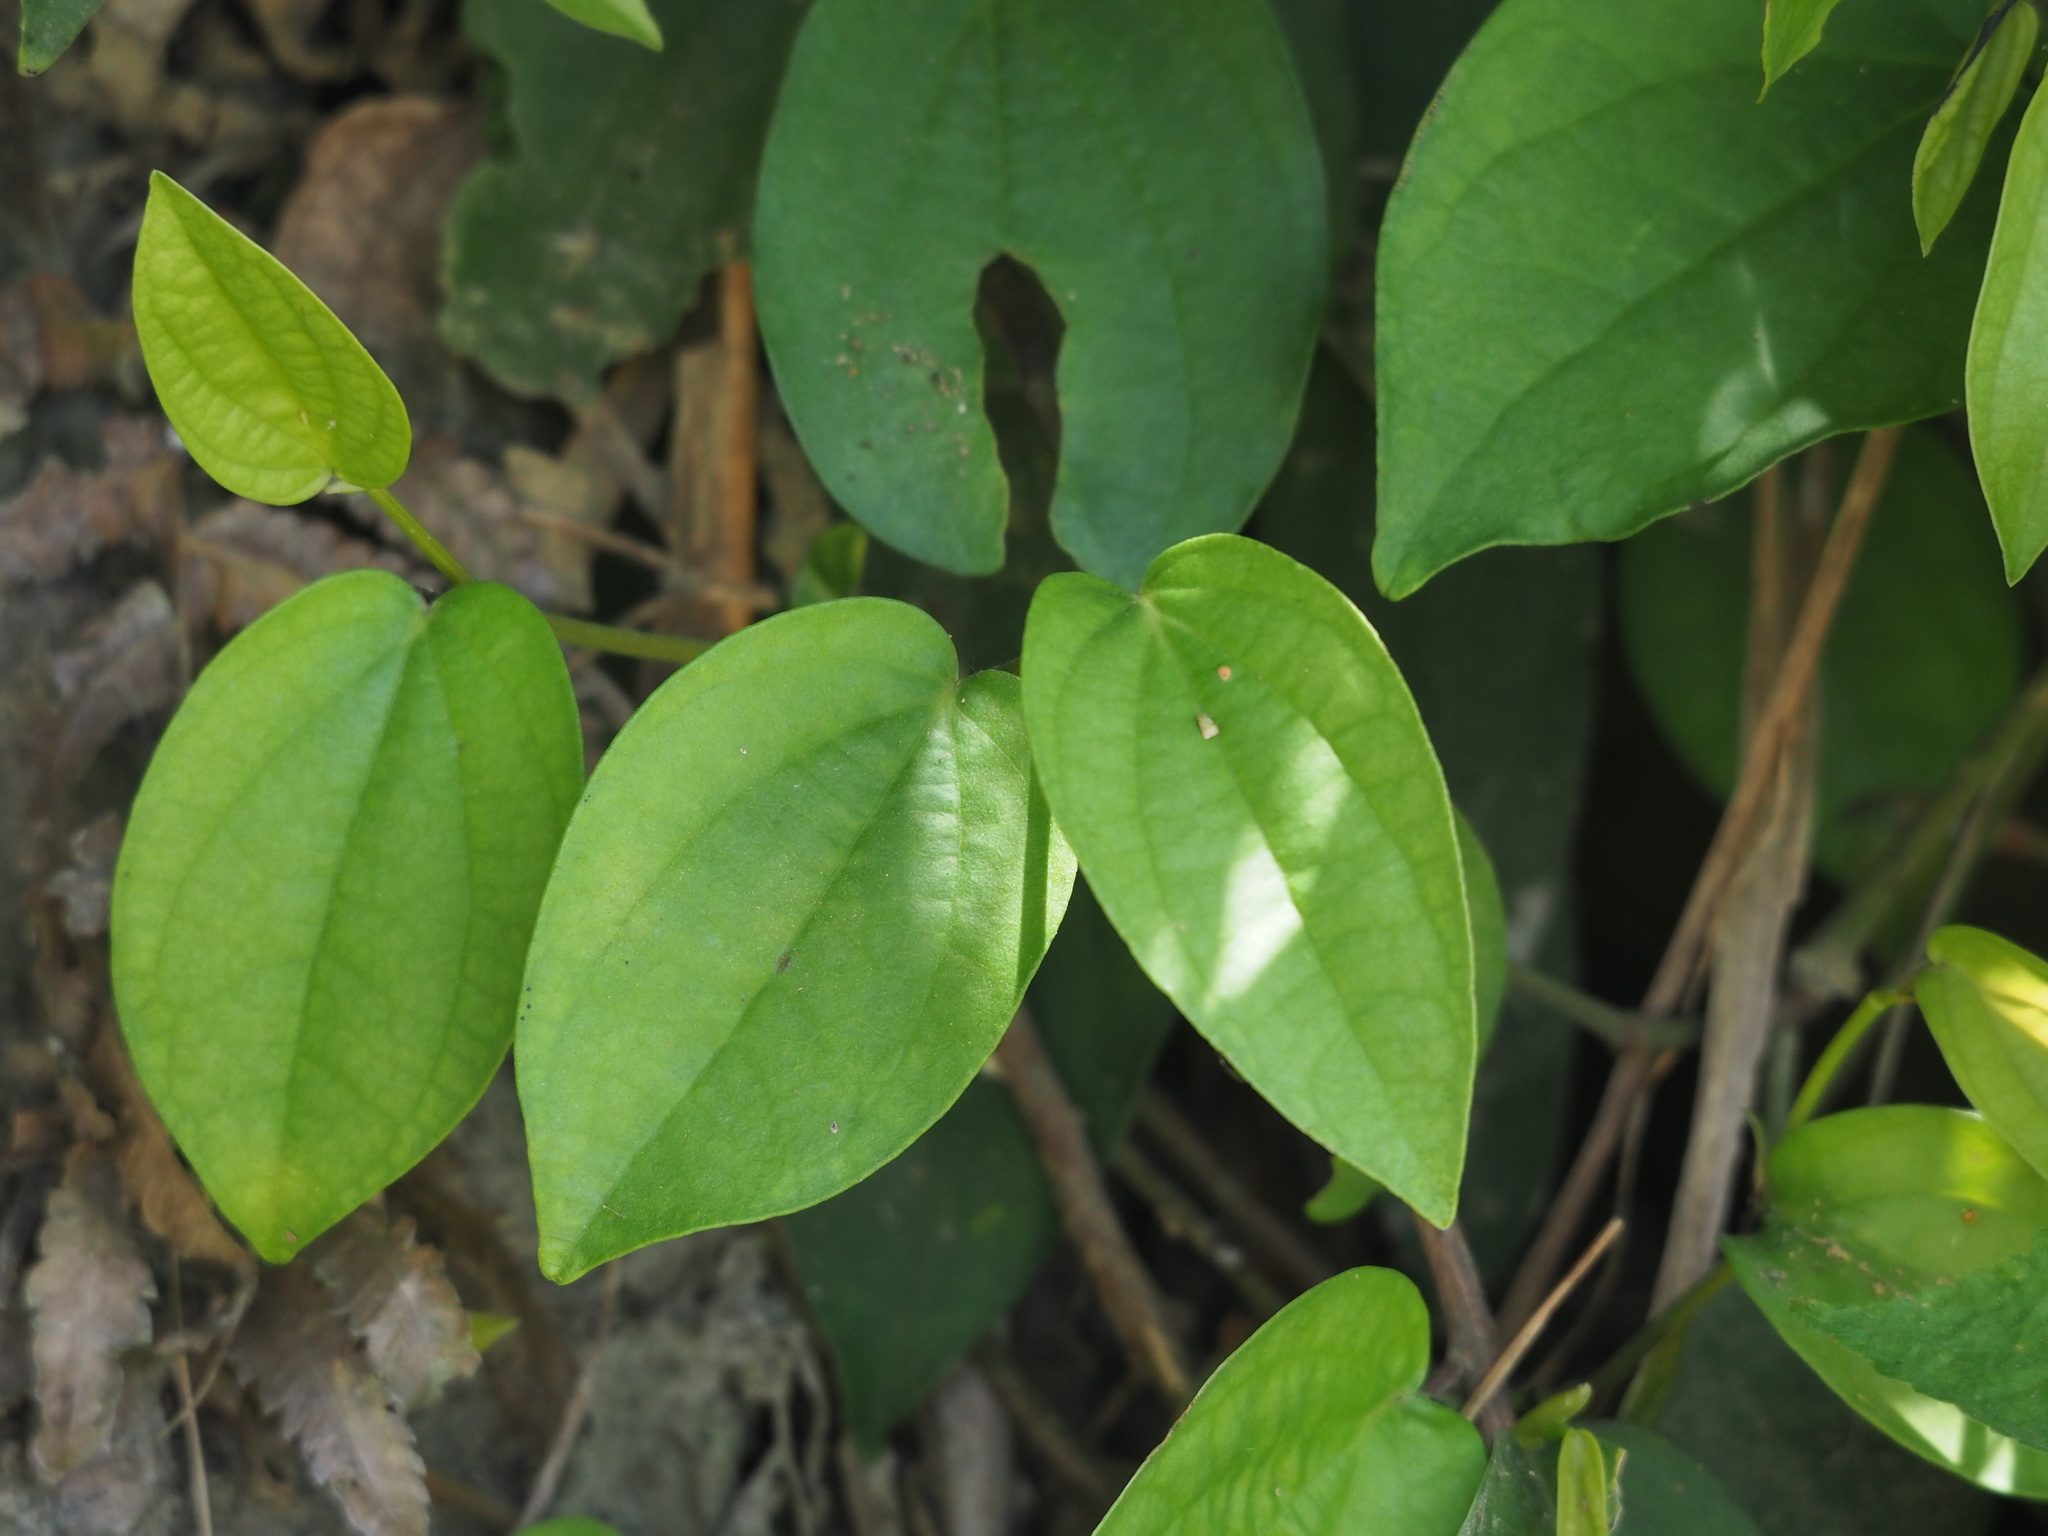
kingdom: Plantae
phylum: Tracheophyta
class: Magnoliopsida
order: Piperales
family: Piperaceae
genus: Piper
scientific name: Piper kadsura
